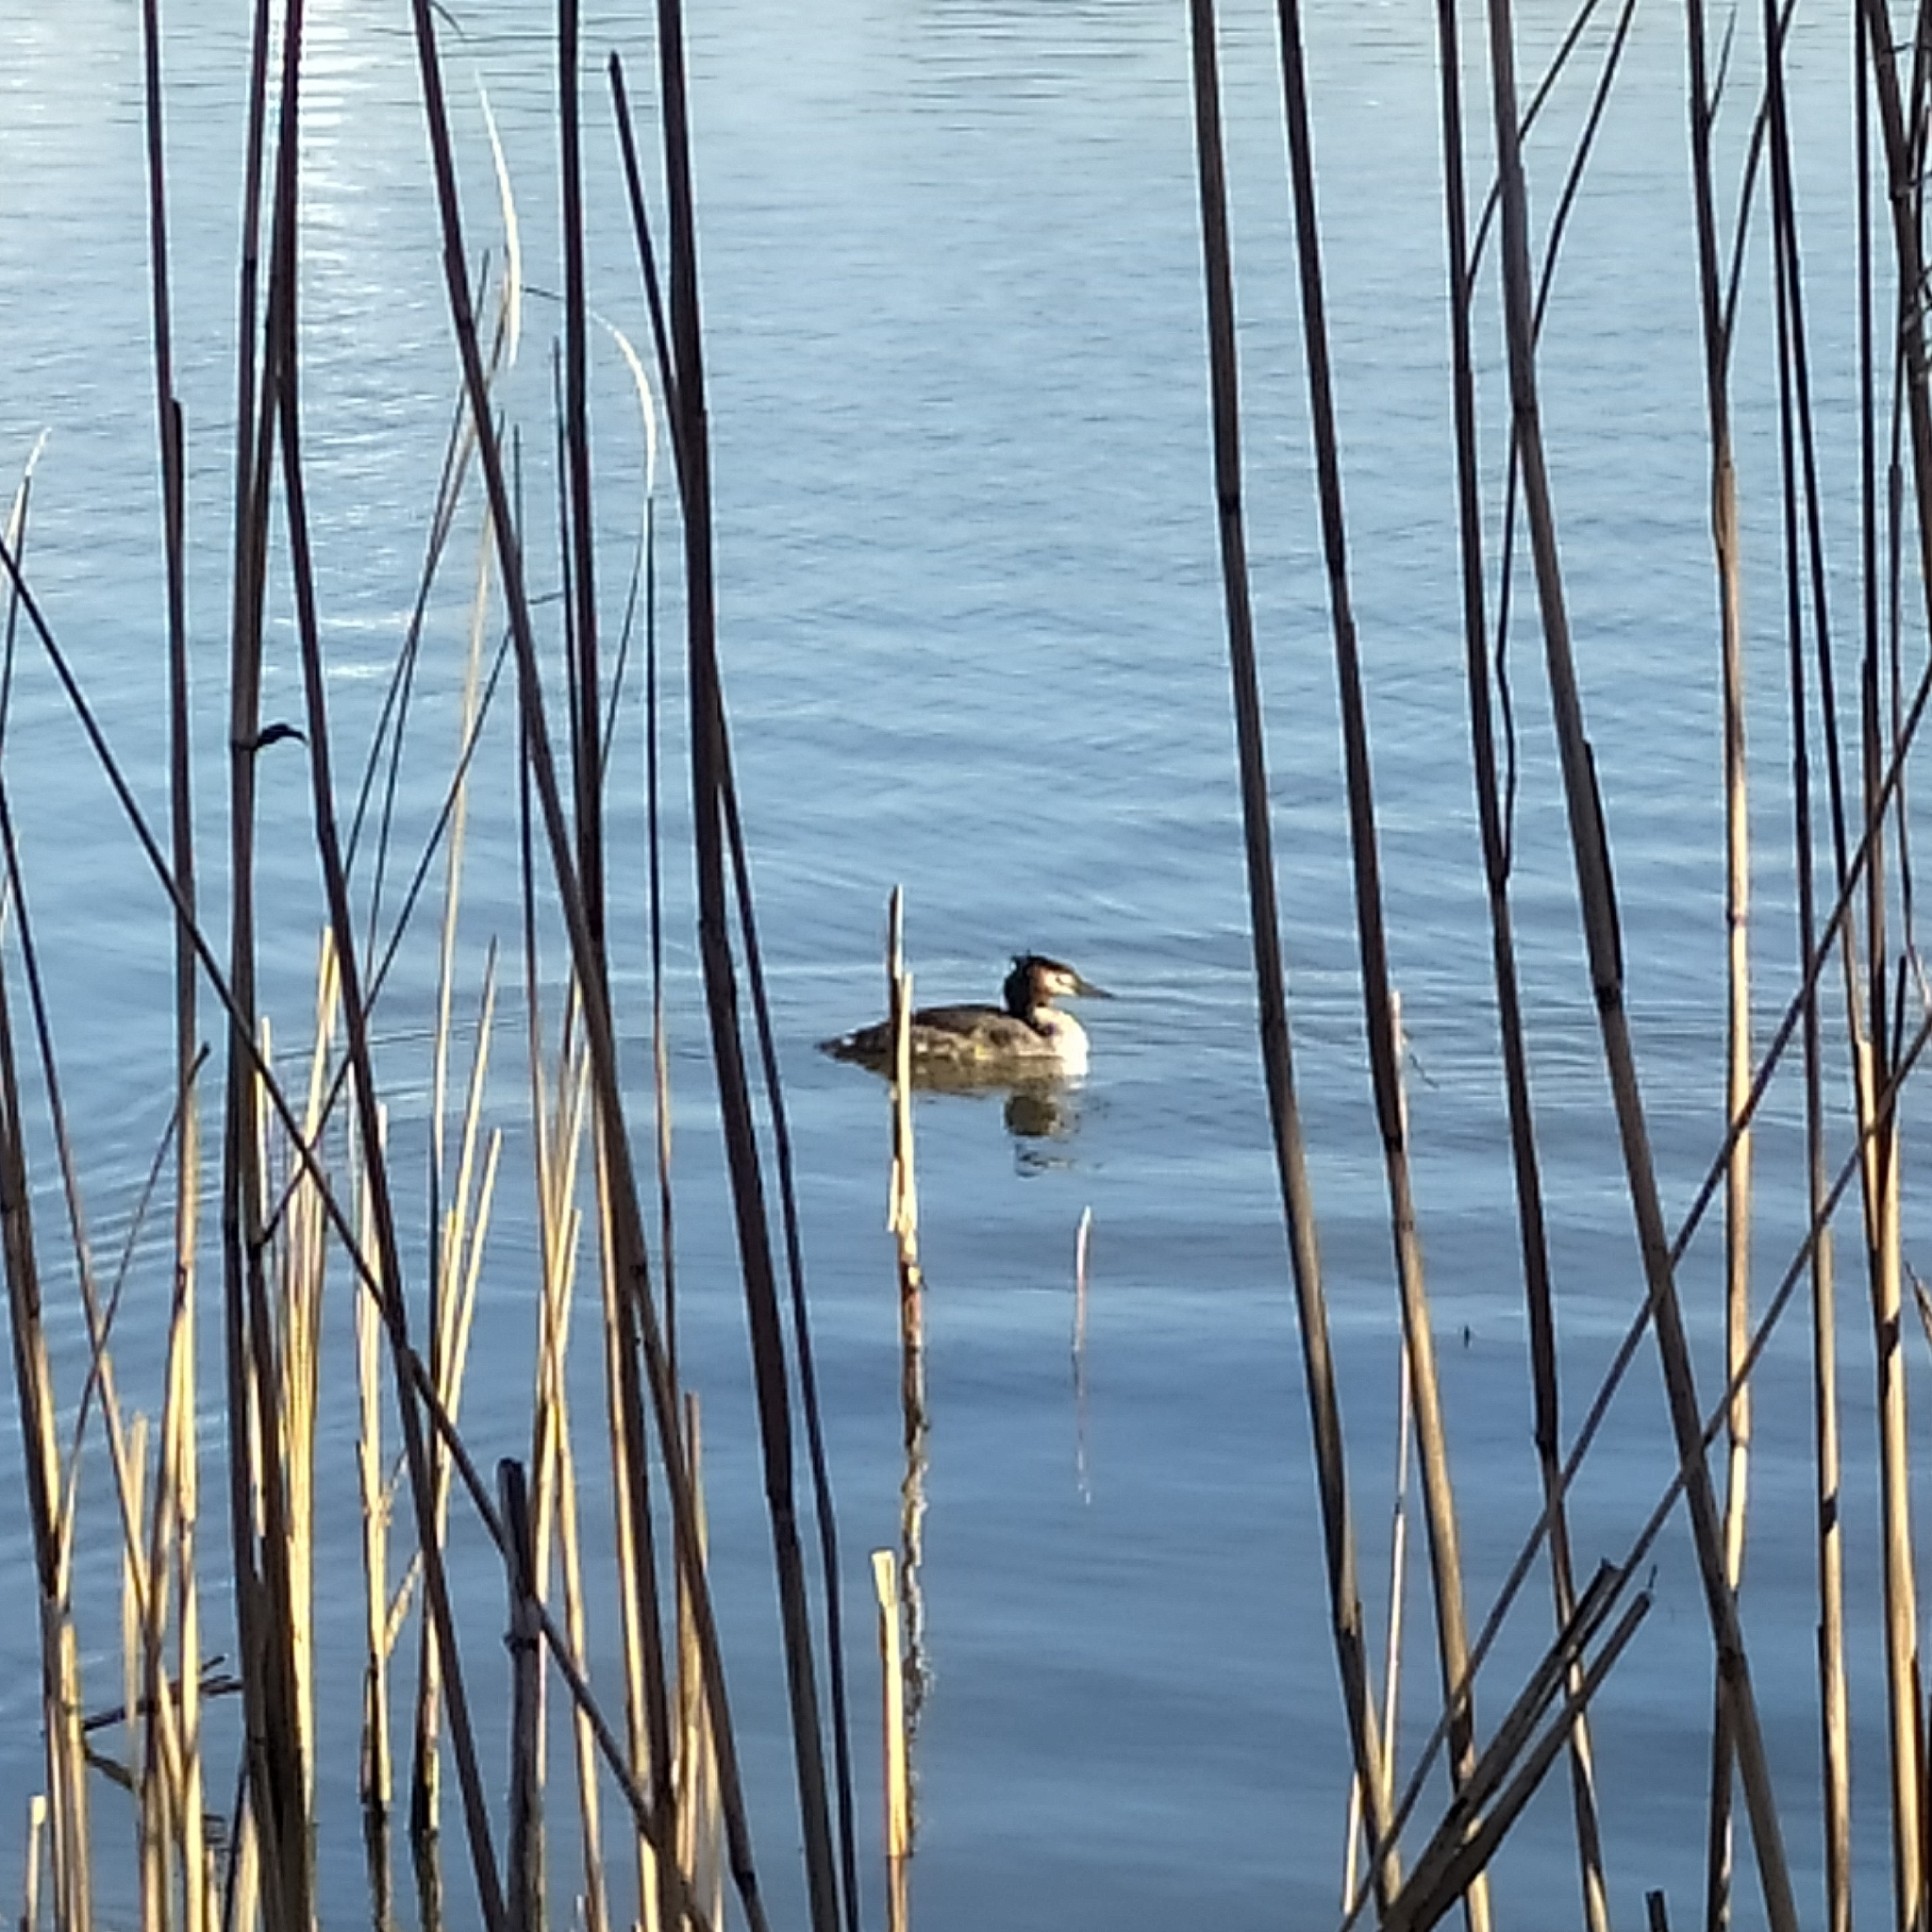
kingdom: Animalia
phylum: Chordata
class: Aves
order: Podicipediformes
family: Podicipedidae
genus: Podiceps
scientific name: Podiceps cristatus
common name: Great crested grebe
